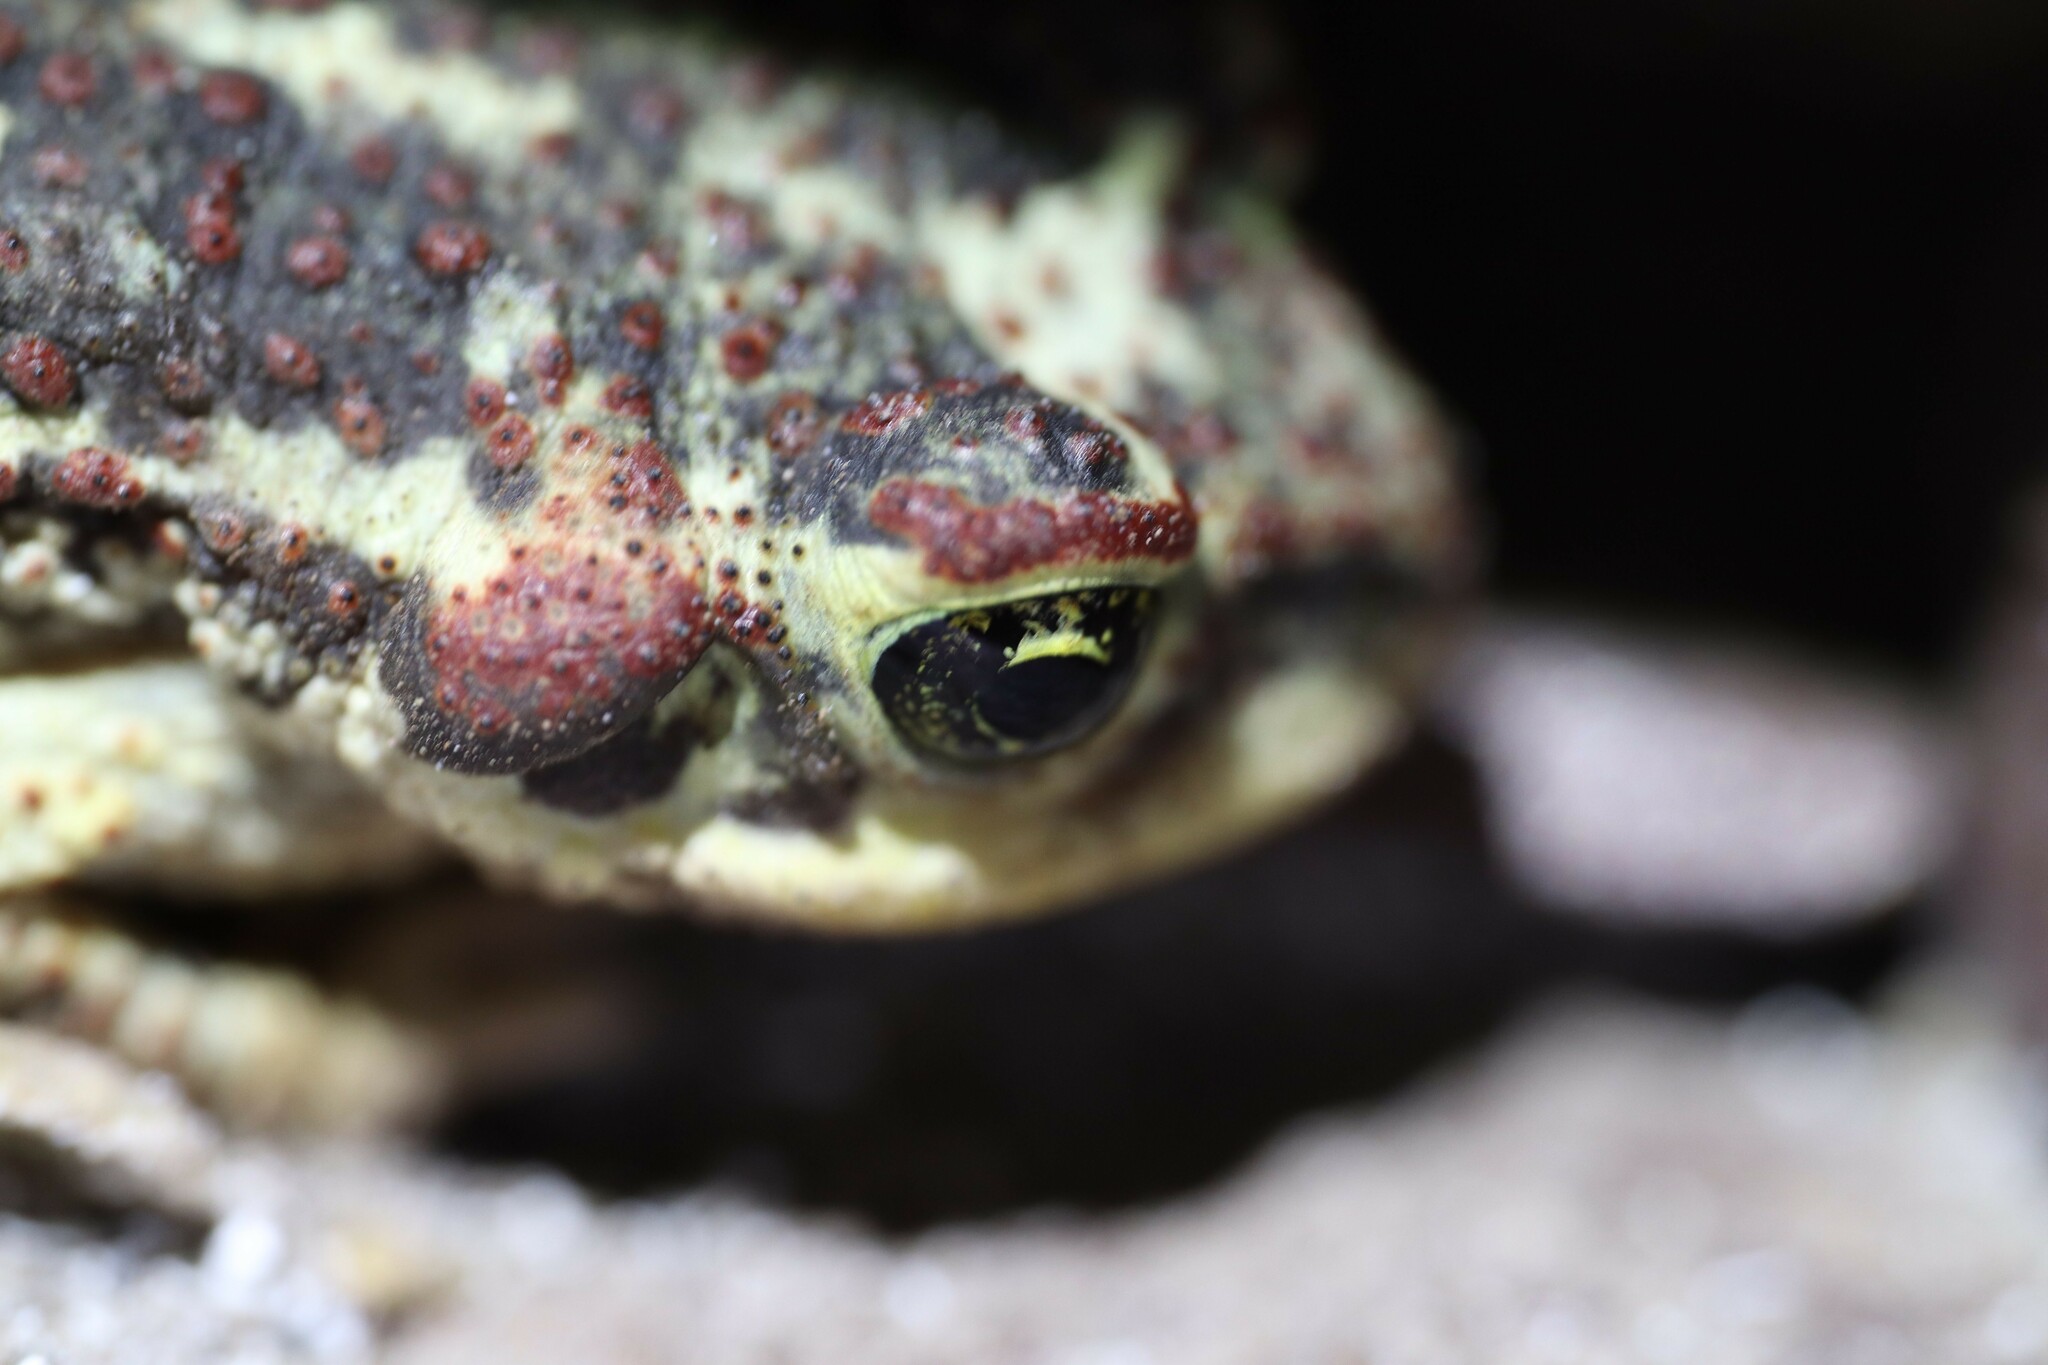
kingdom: Animalia
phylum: Chordata
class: Amphibia
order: Anura
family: Bufonidae
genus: Rhinella
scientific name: Rhinella atacamensis
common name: Atacama toad
